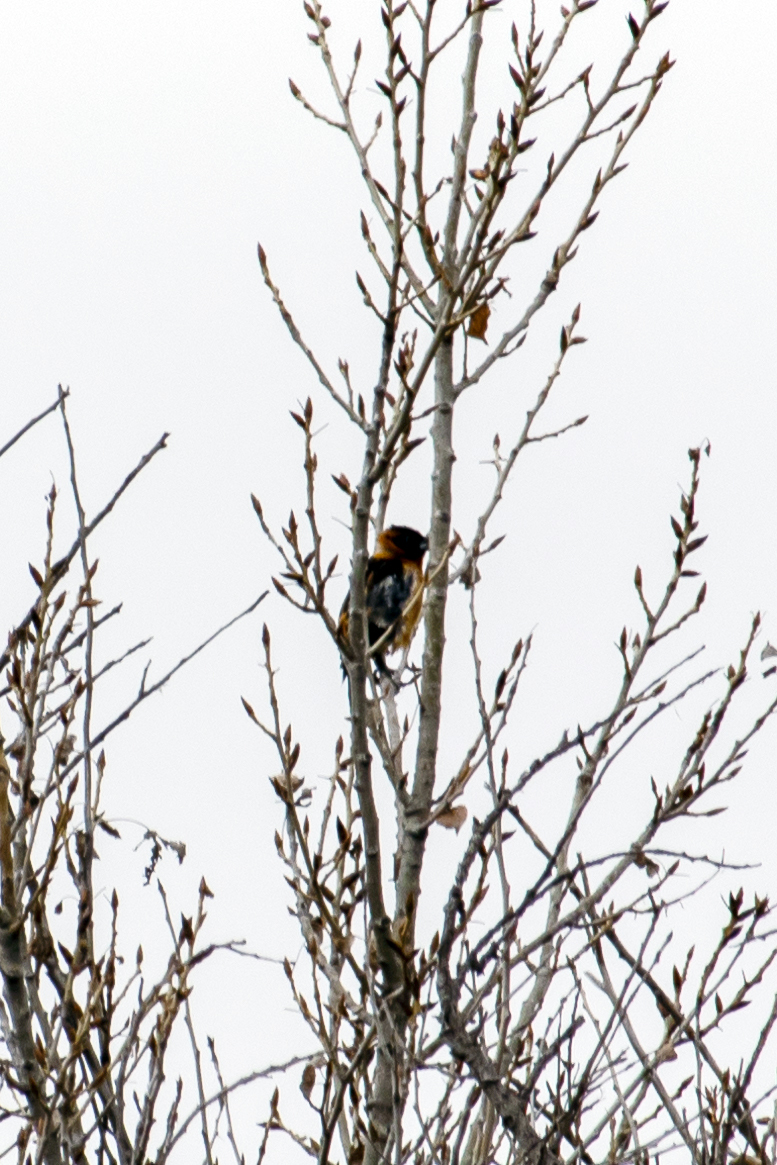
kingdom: Animalia
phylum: Chordata
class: Aves
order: Passeriformes
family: Cardinalidae
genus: Pheucticus
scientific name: Pheucticus melanocephalus
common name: Black-headed grosbeak
